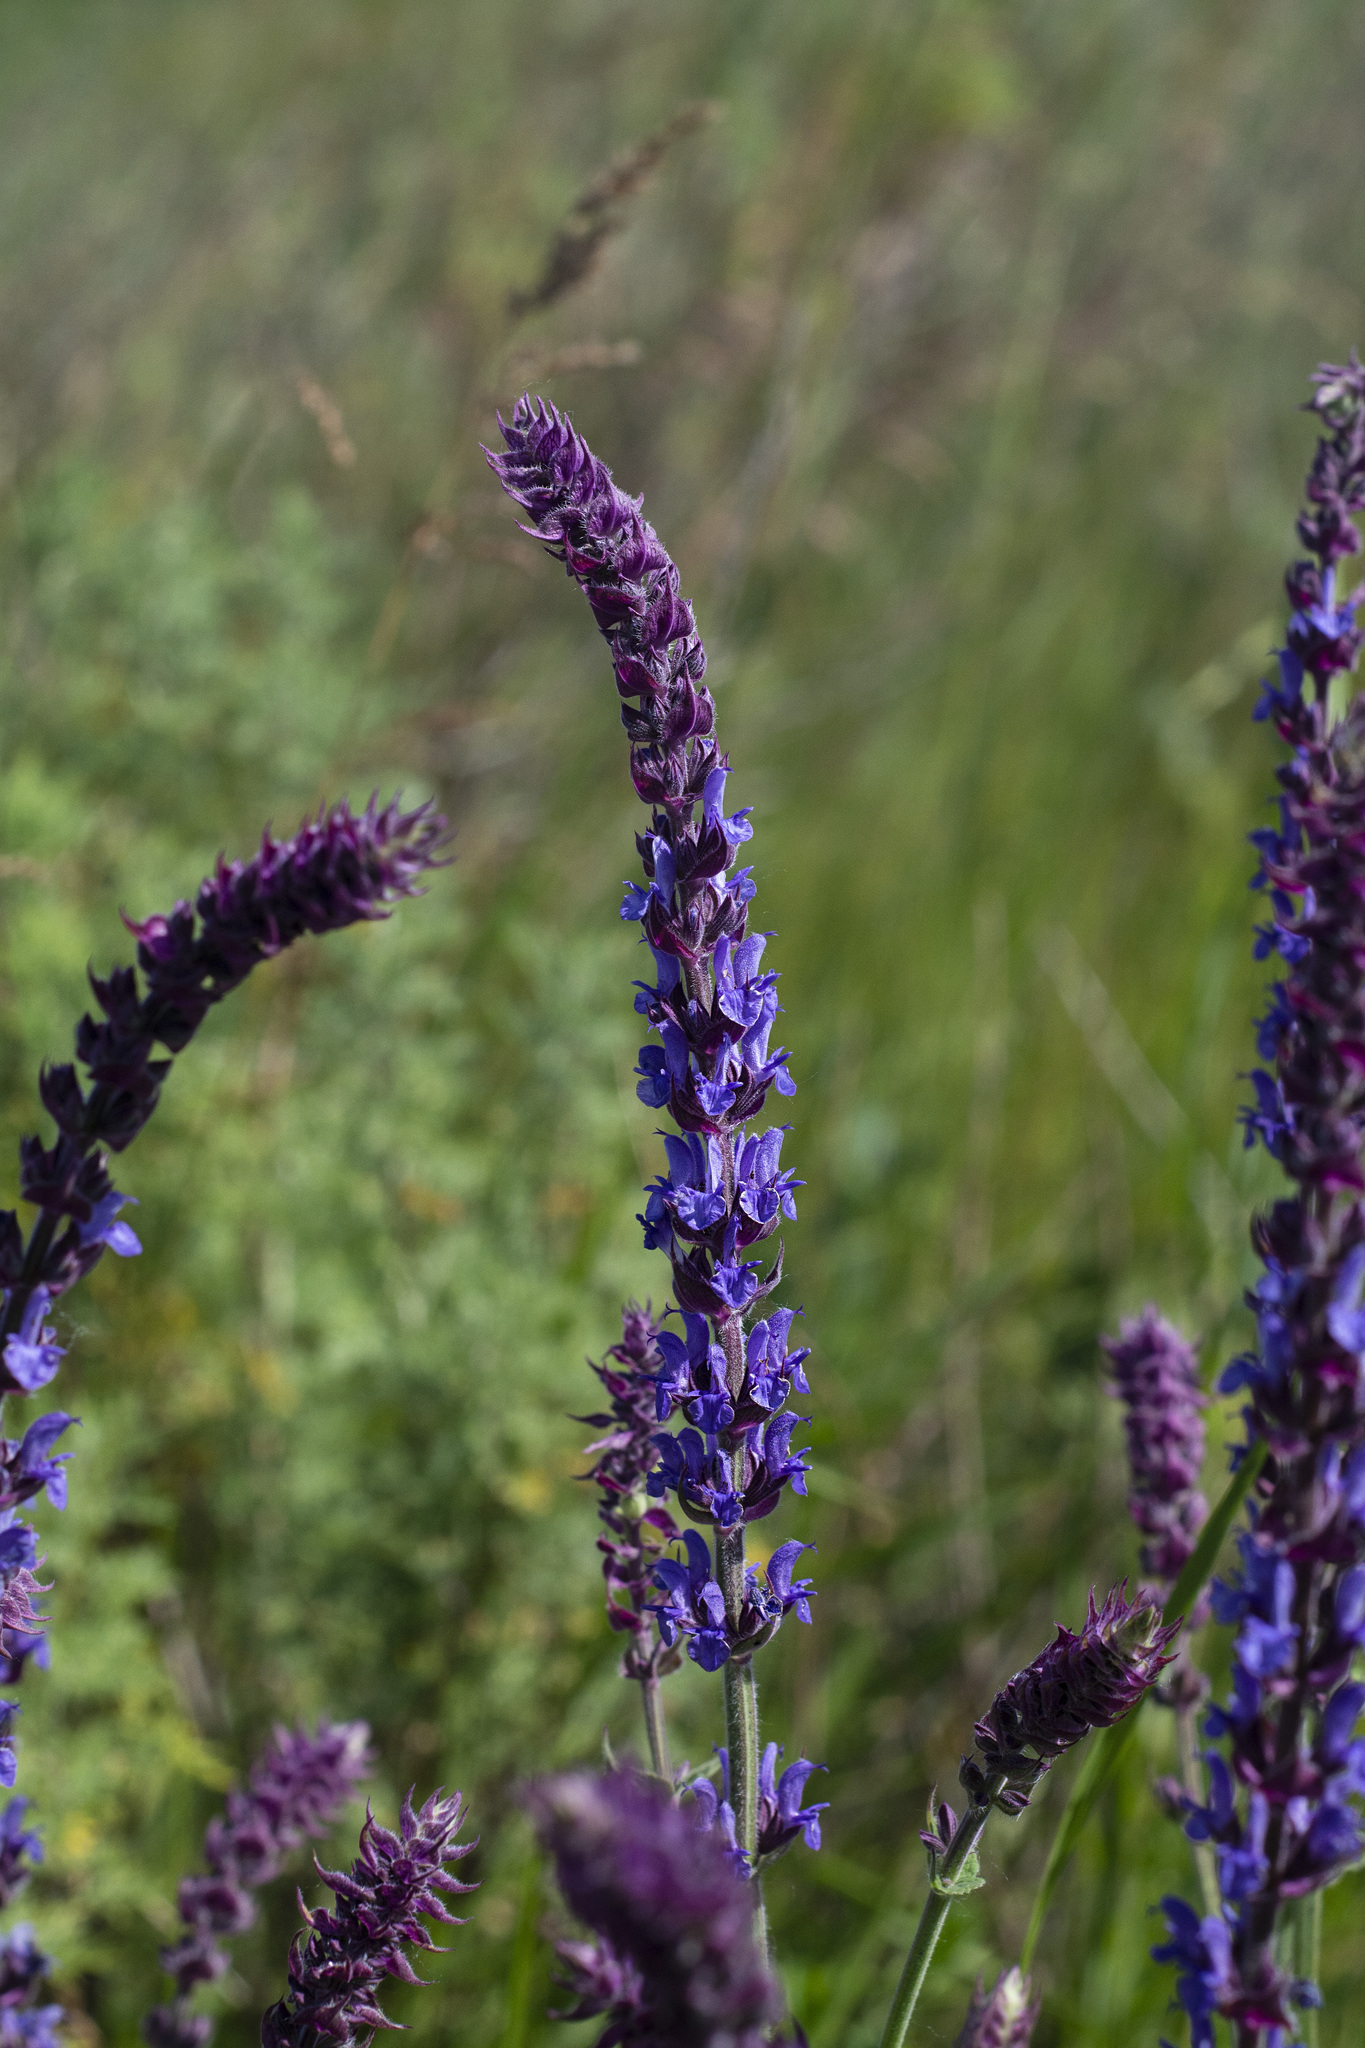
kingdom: Plantae
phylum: Tracheophyta
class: Magnoliopsida
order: Lamiales
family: Lamiaceae
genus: Salvia
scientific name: Salvia nemorosa
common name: Balkan clary
